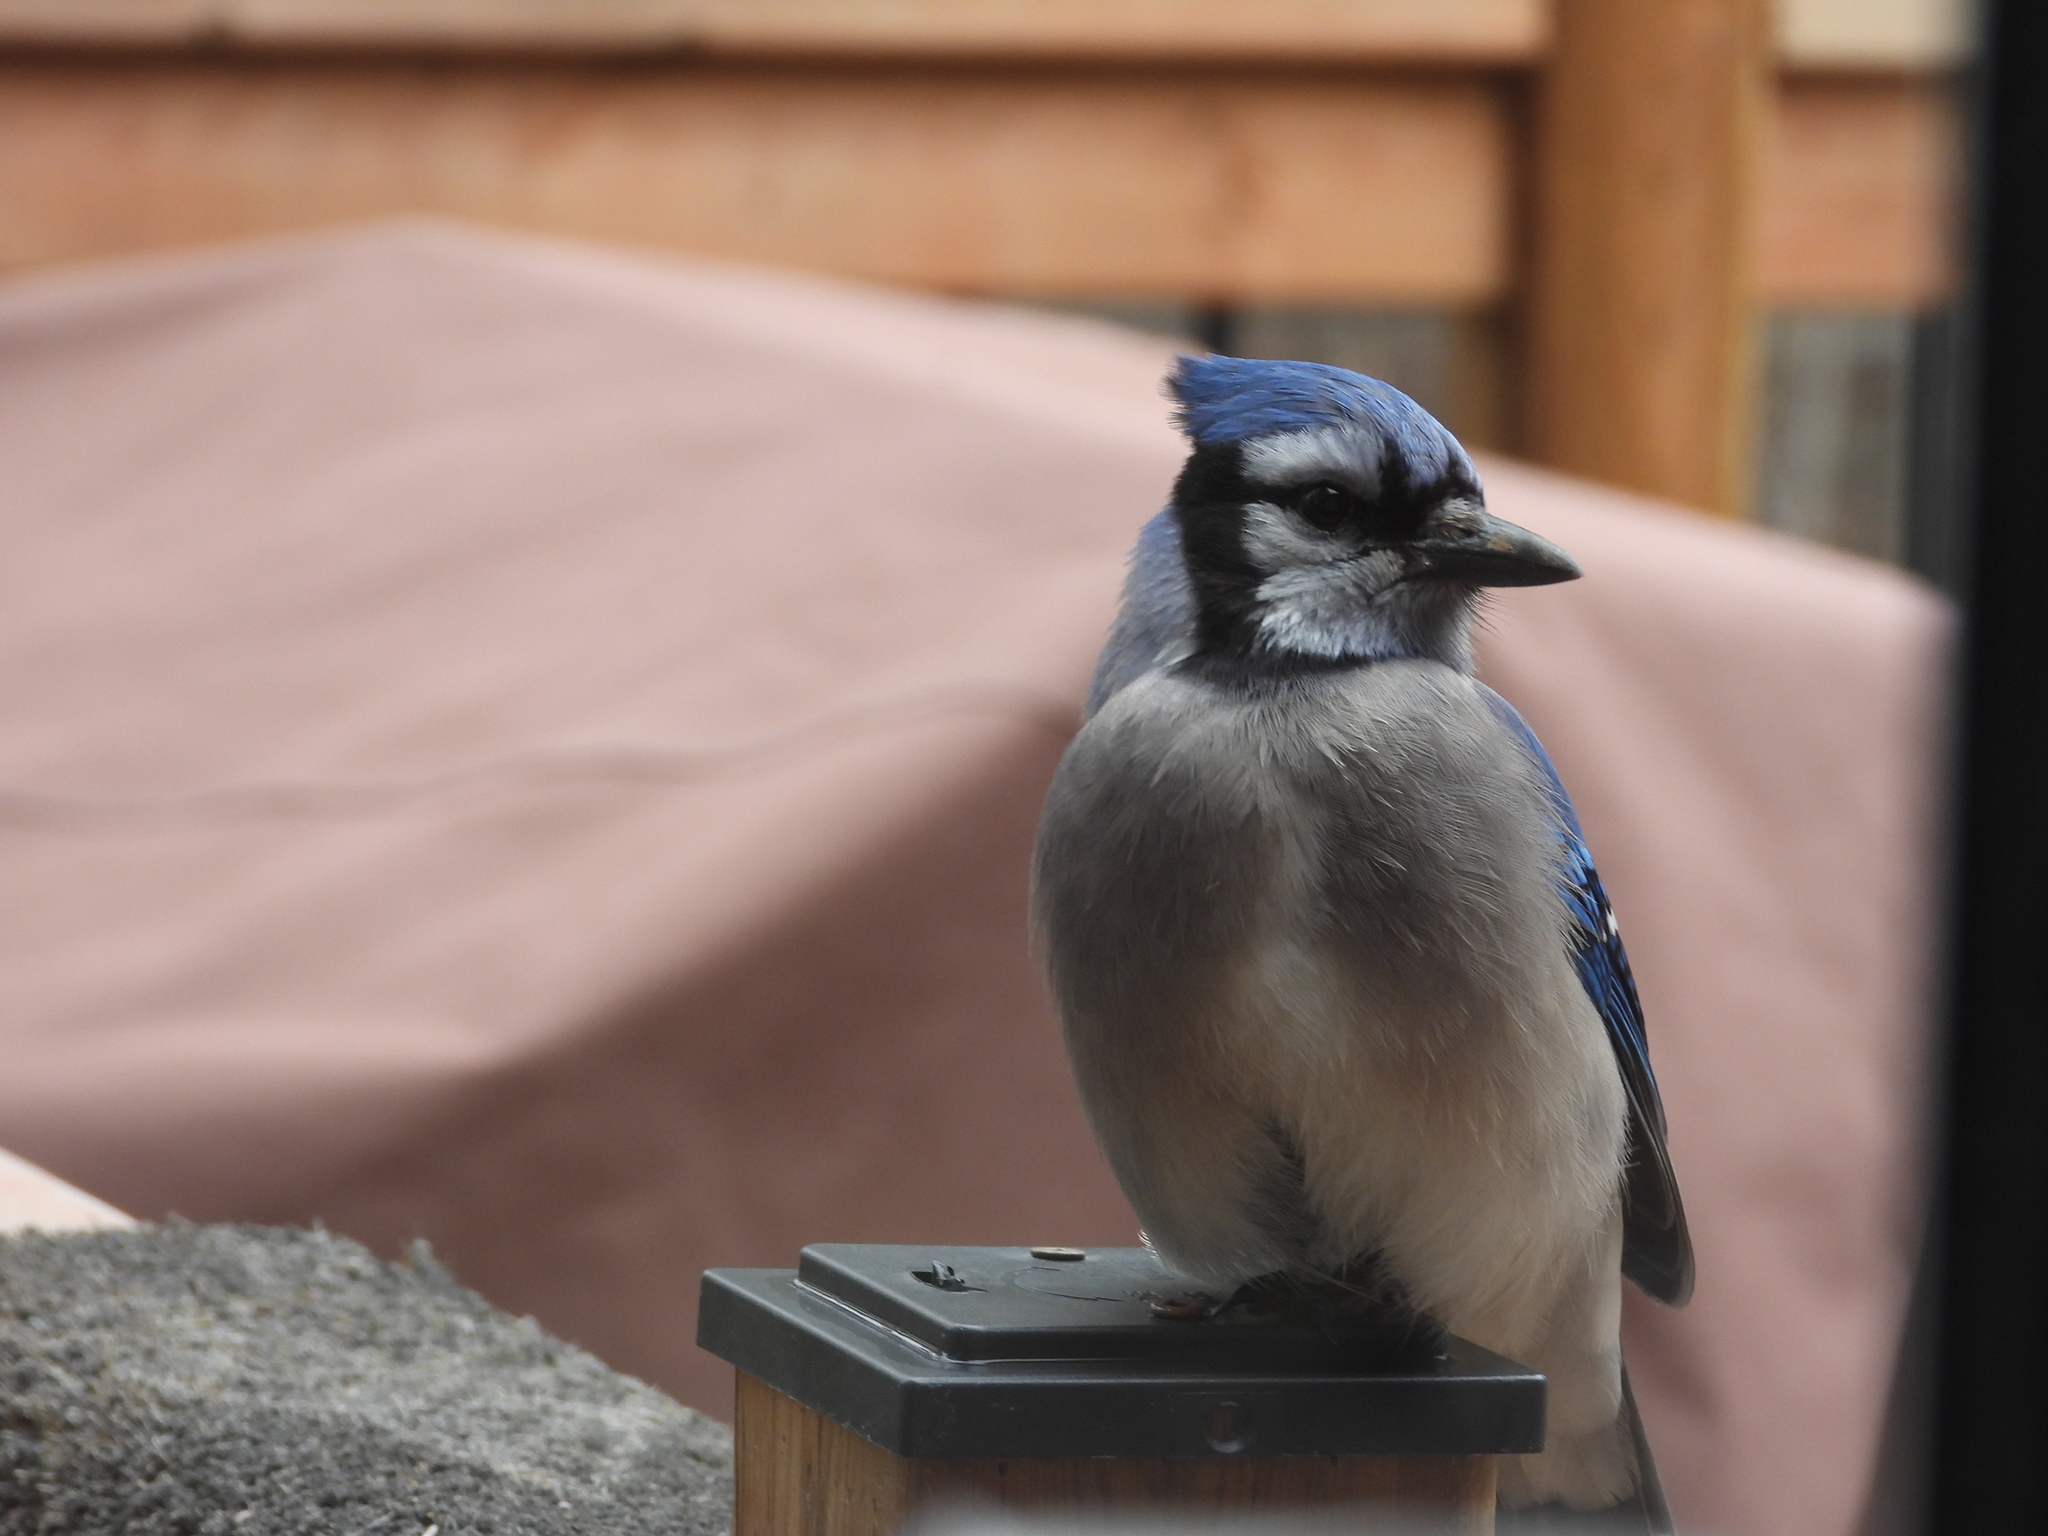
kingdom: Animalia
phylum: Chordata
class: Aves
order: Passeriformes
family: Corvidae
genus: Cyanocitta
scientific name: Cyanocitta cristata
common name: Blue jay
